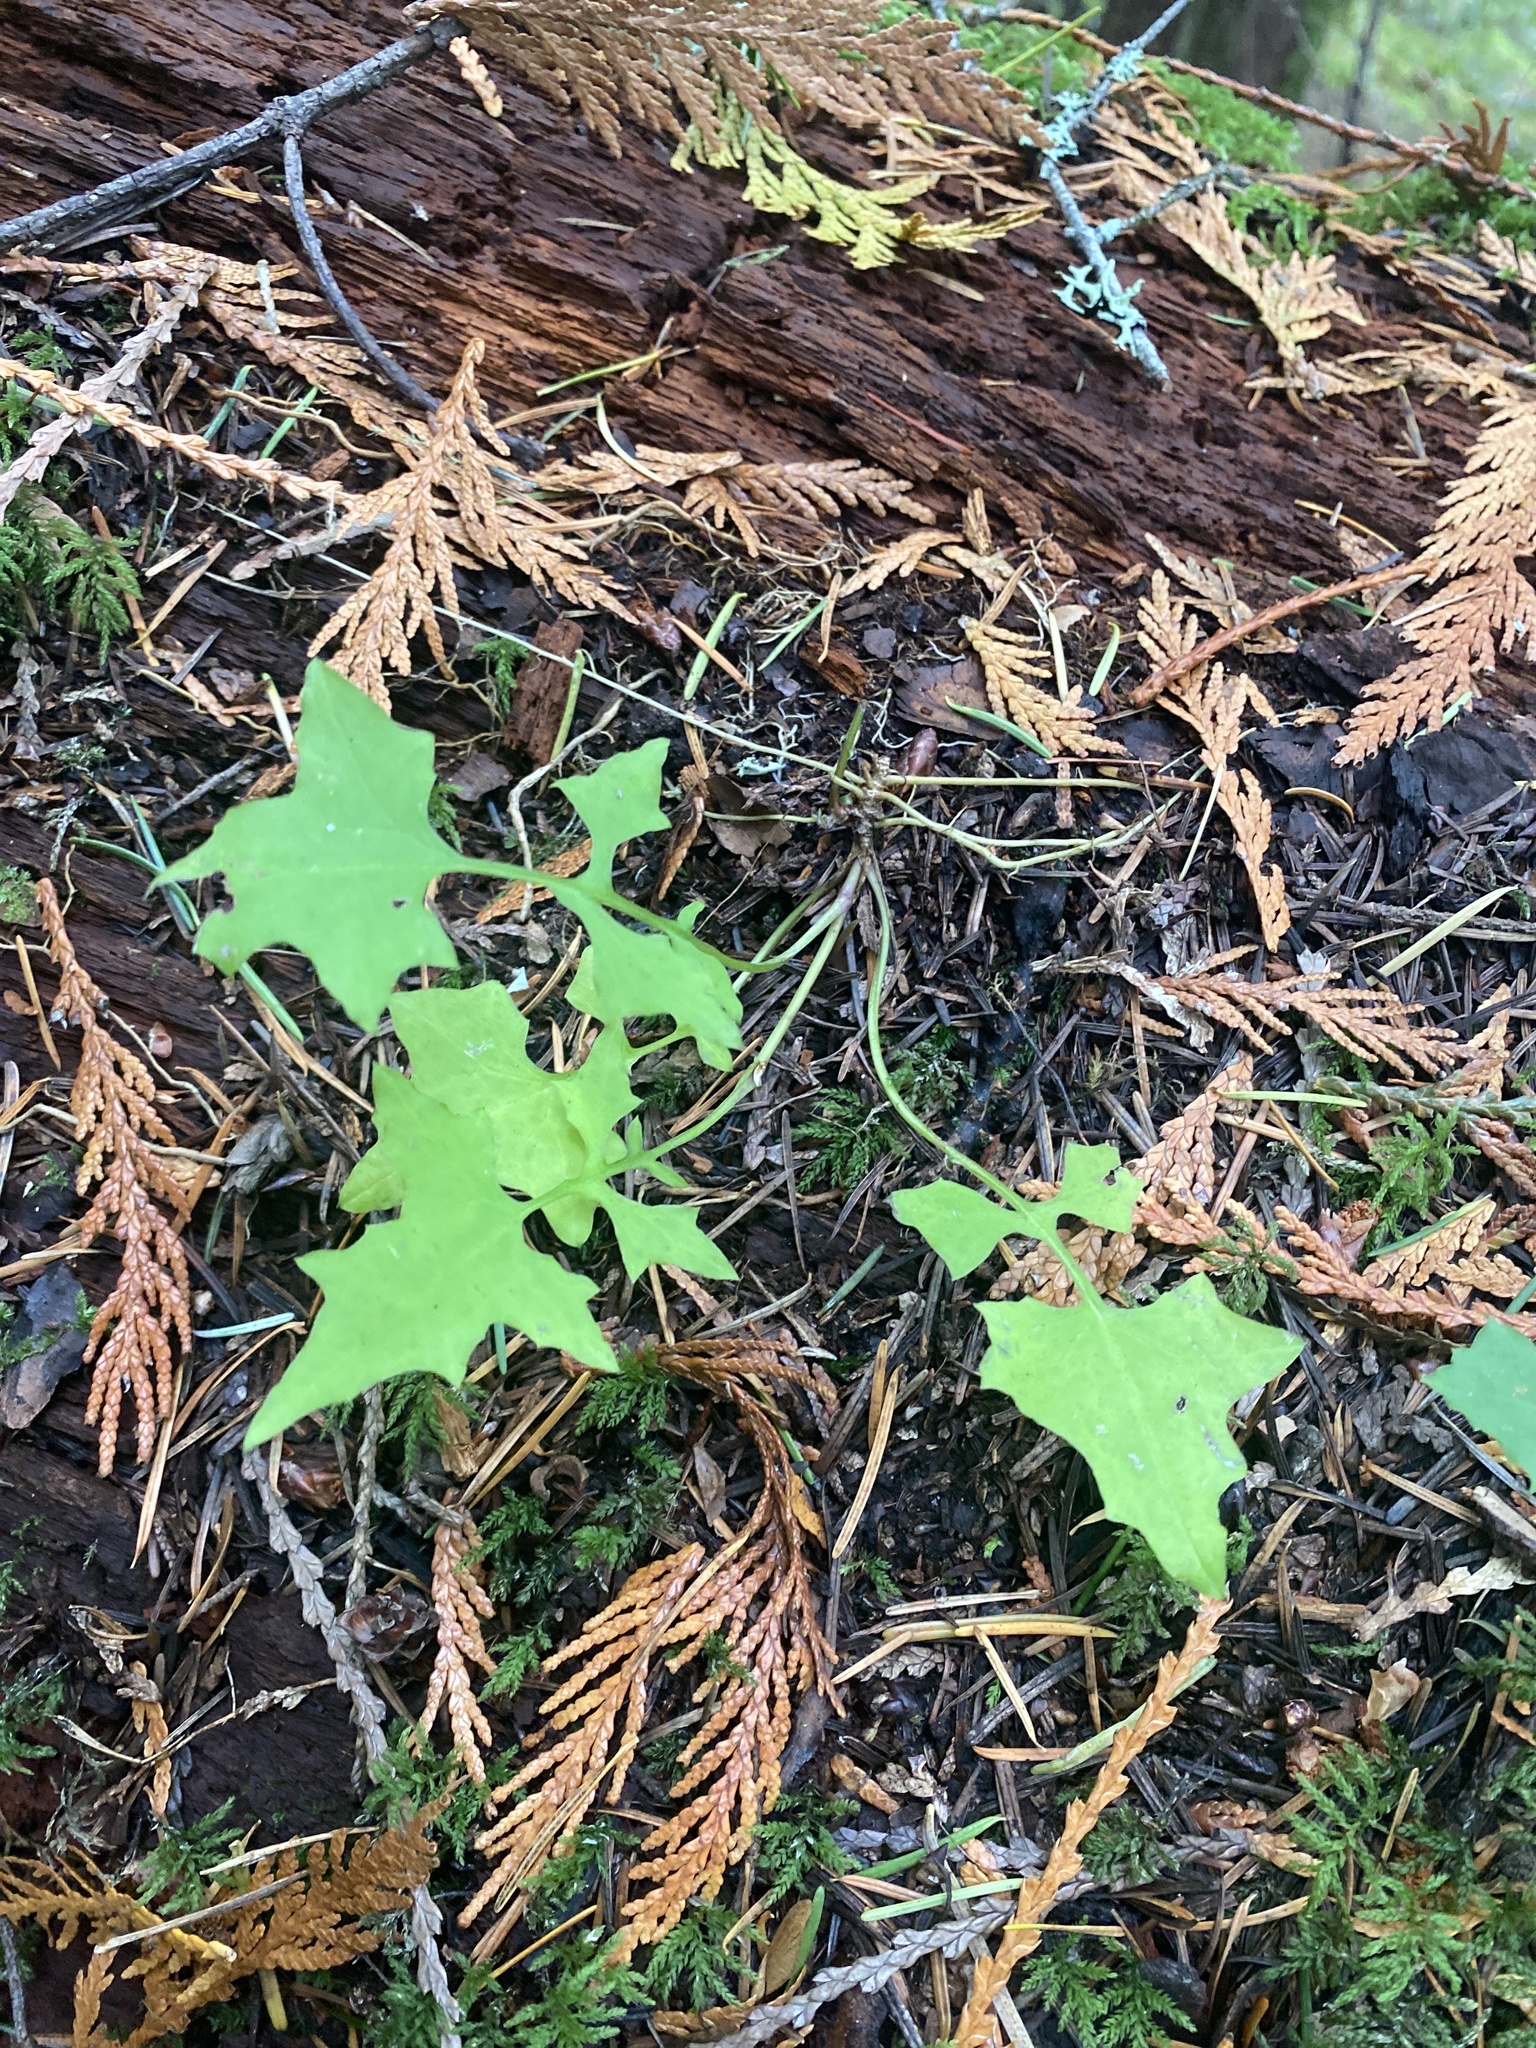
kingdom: Plantae
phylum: Tracheophyta
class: Magnoliopsida
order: Asterales
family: Asteraceae
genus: Mycelis
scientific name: Mycelis muralis
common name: Wall lettuce
